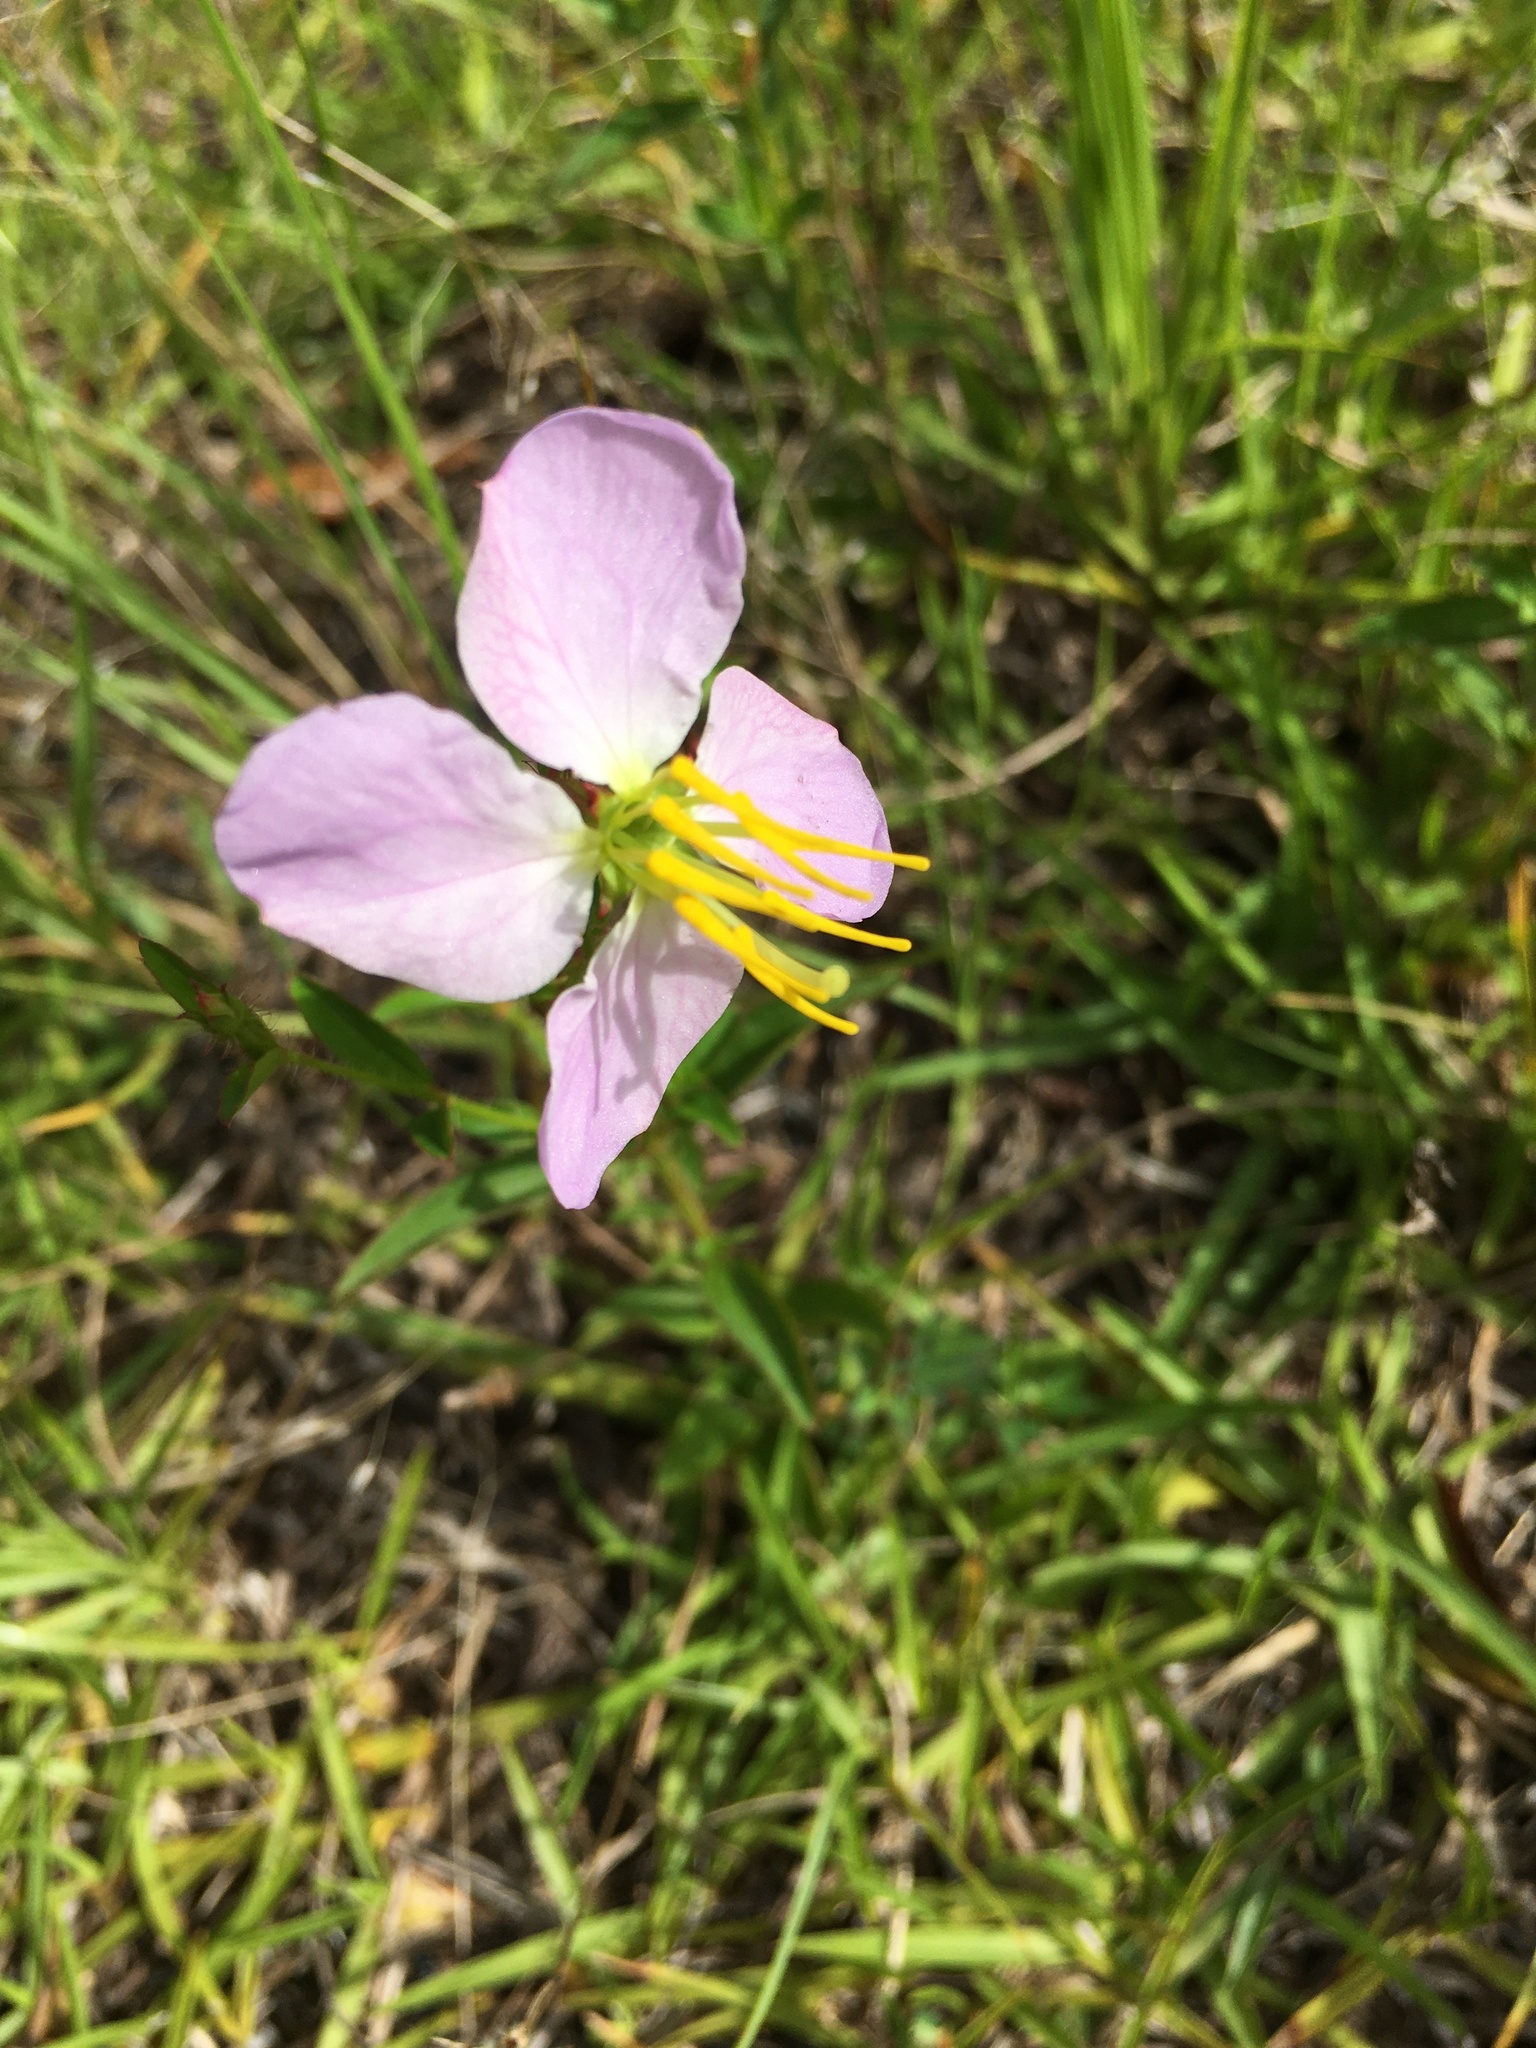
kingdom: Plantae
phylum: Tracheophyta
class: Magnoliopsida
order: Myrtales
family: Melastomataceae
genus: Rhexia
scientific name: Rhexia mariana
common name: Dull meadow-pitcher
